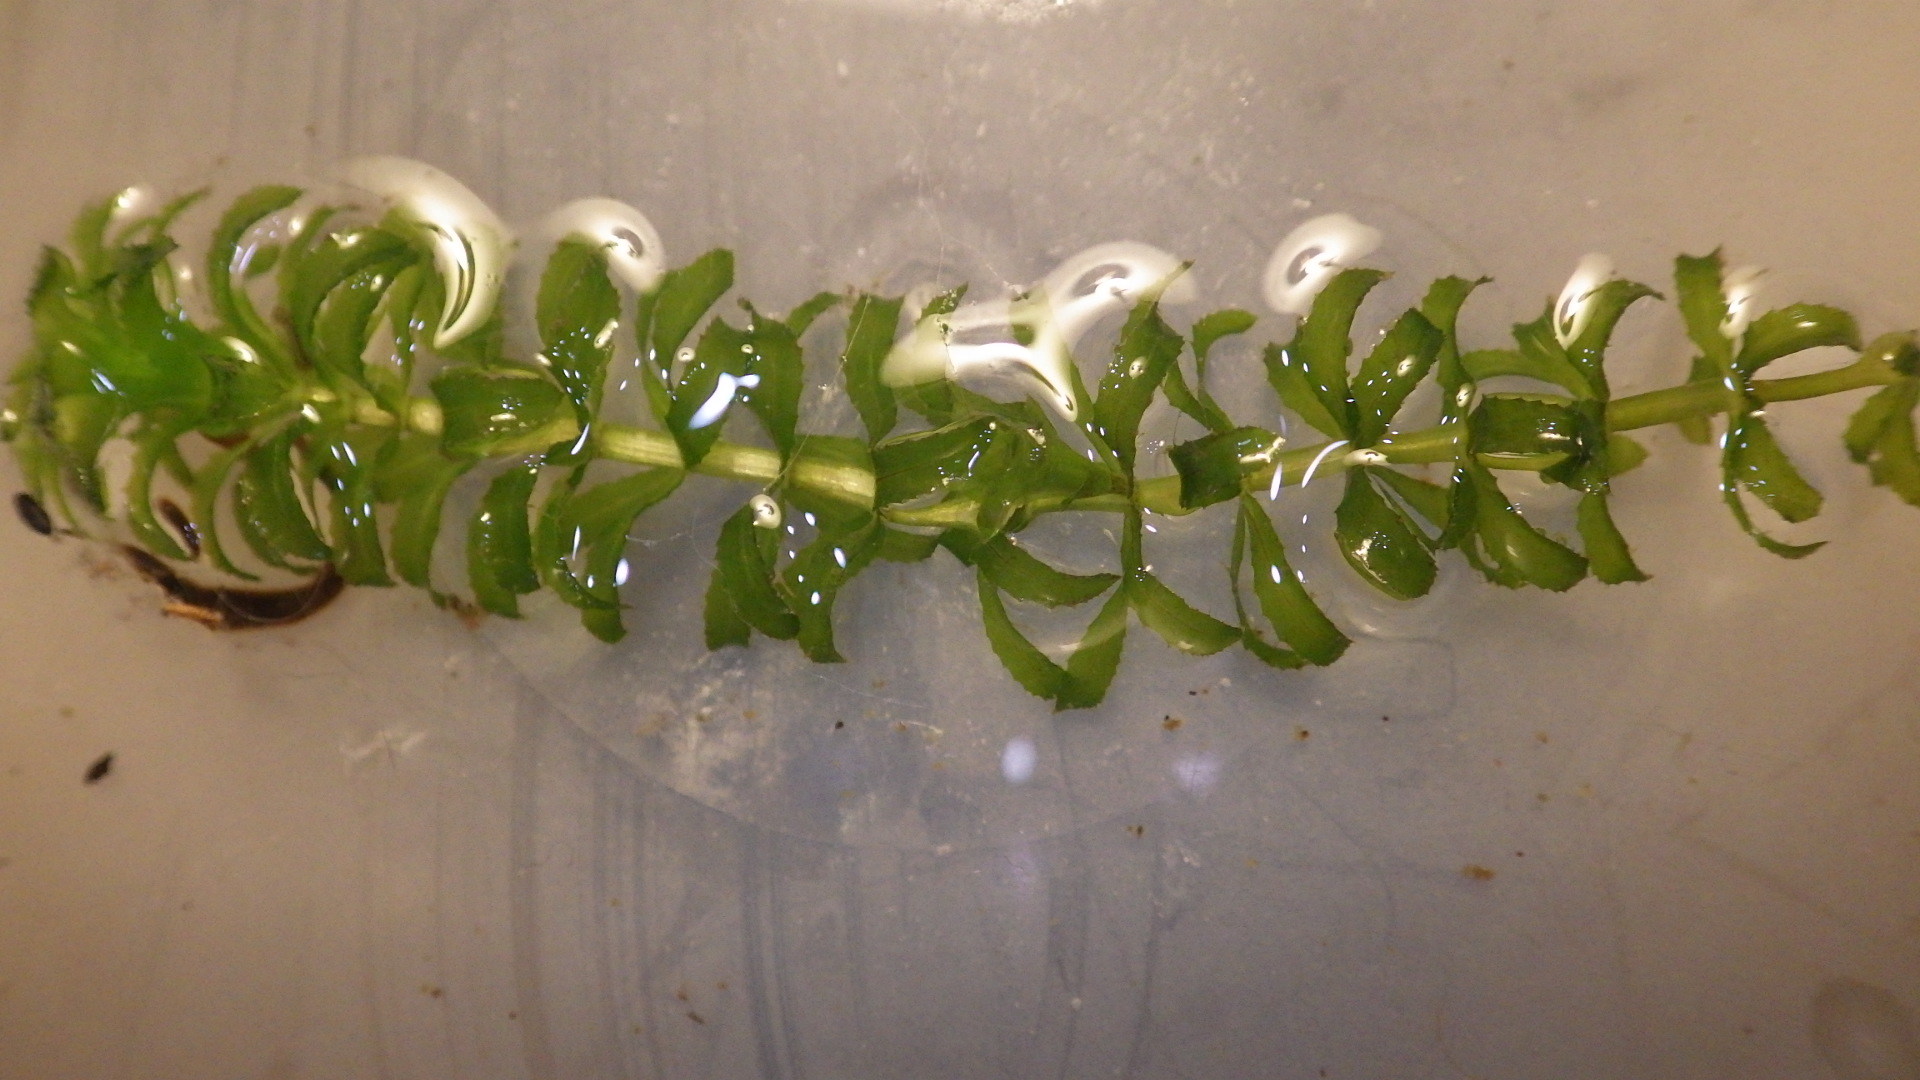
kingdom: Plantae
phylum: Tracheophyta
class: Liliopsida
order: Alismatales
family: Hydrocharitaceae
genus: Hydrilla
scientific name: Hydrilla verticillata
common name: Florida-elodea
